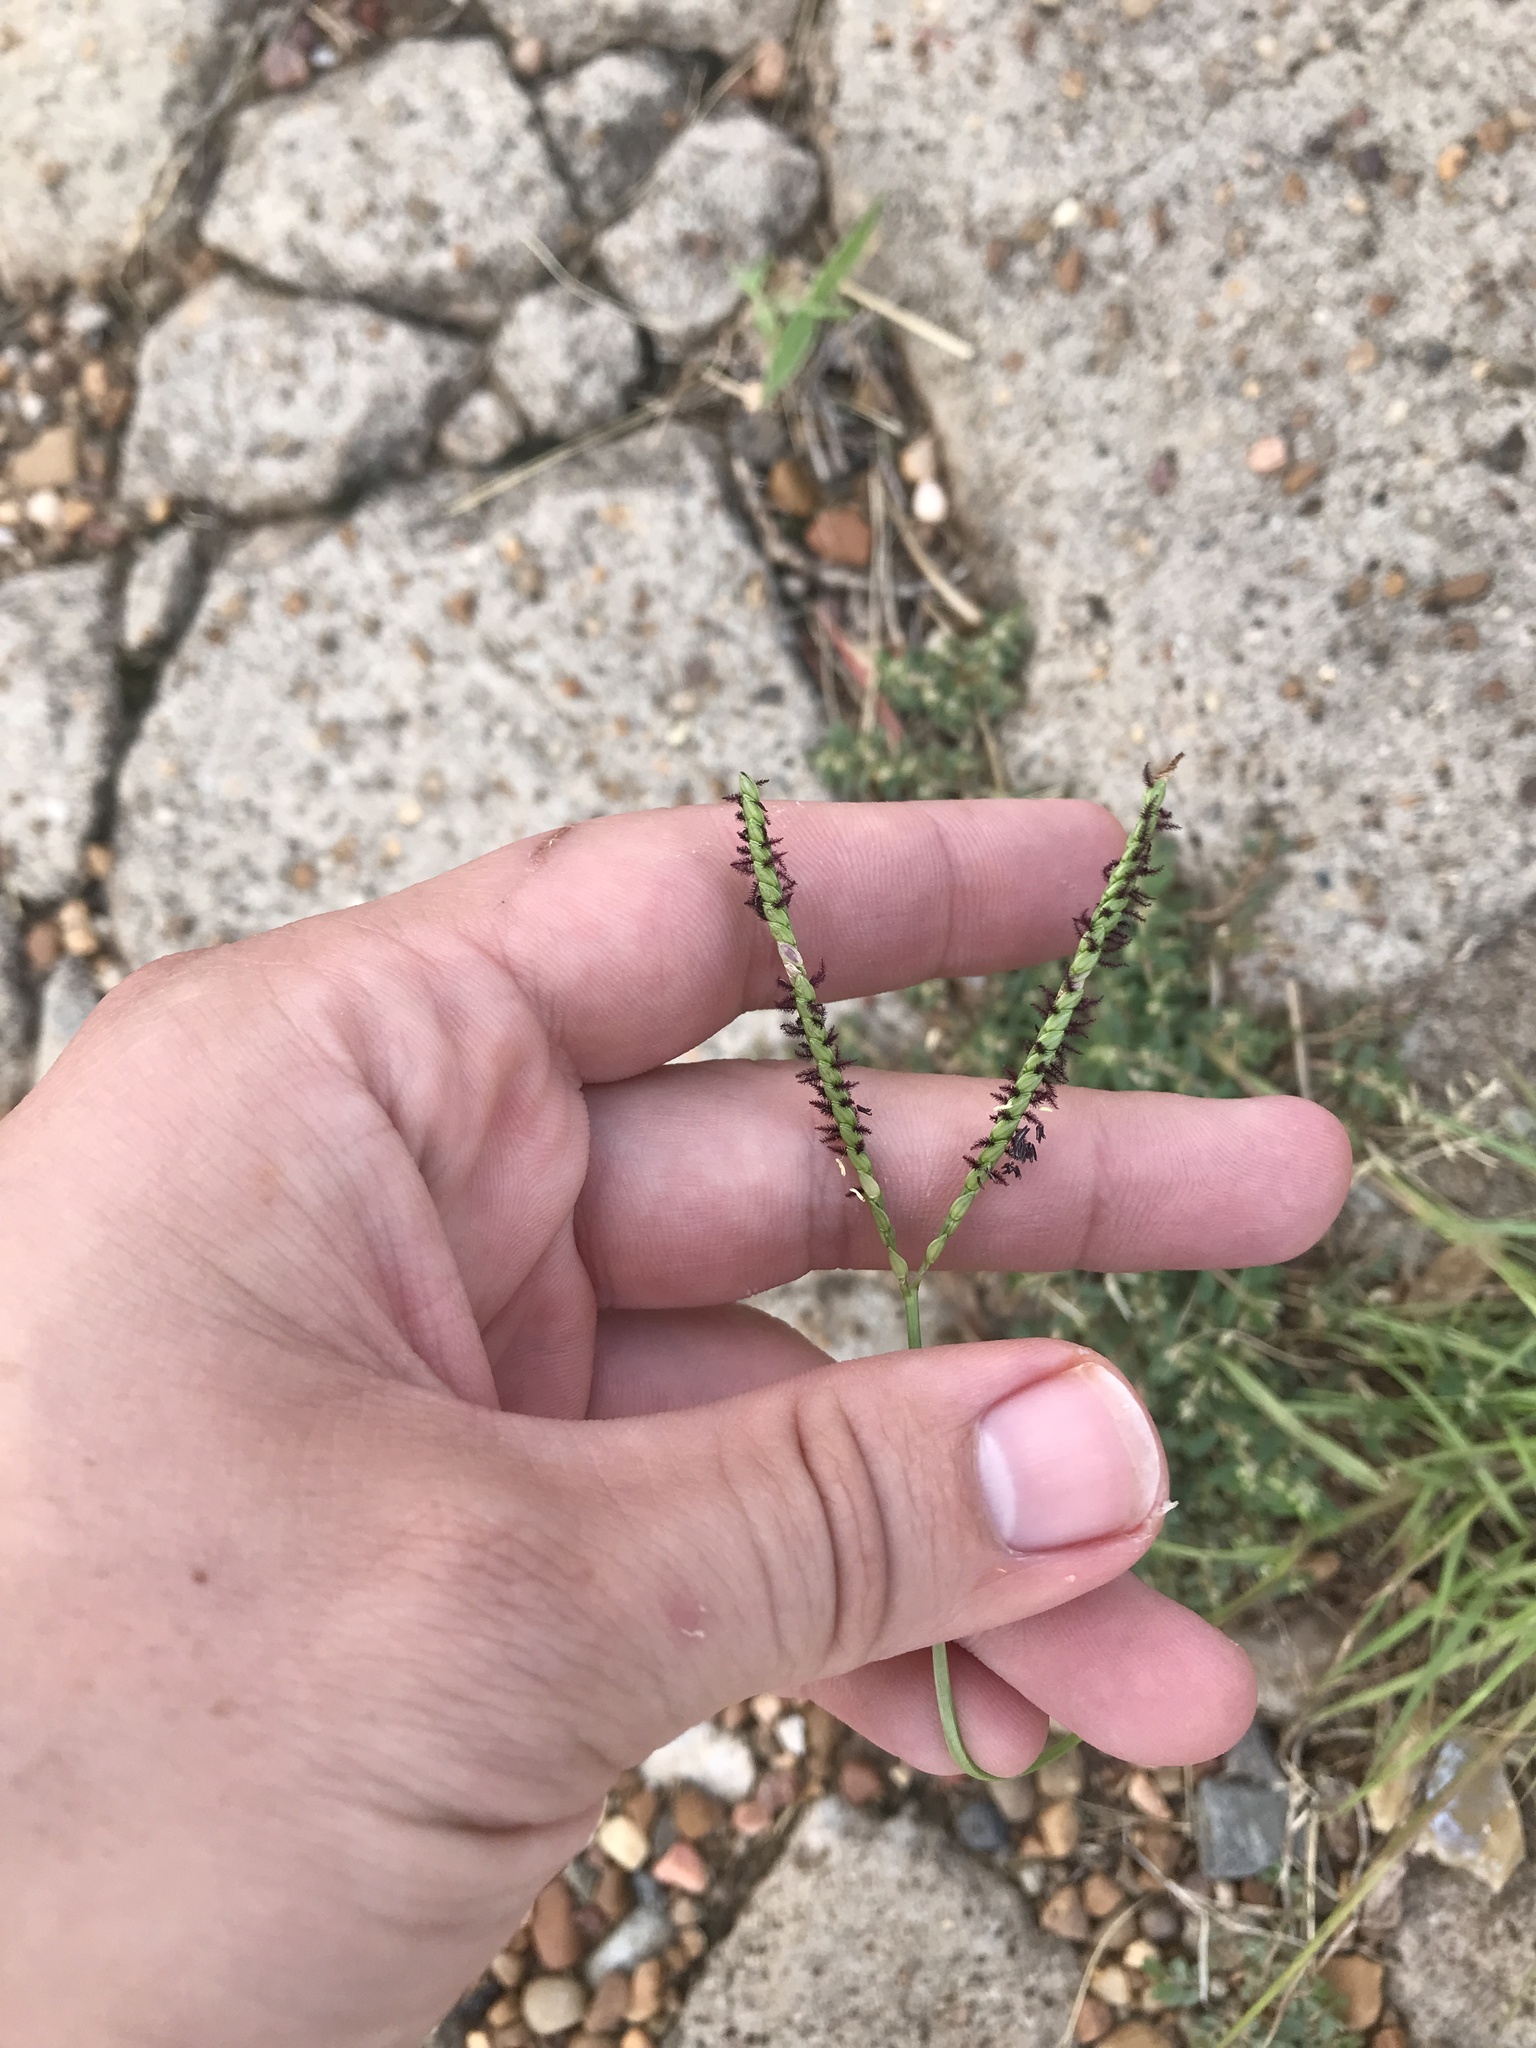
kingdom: Plantae
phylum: Tracheophyta
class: Liliopsida
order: Poales
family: Poaceae
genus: Paspalum
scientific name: Paspalum notatum
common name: Bahiagrass
